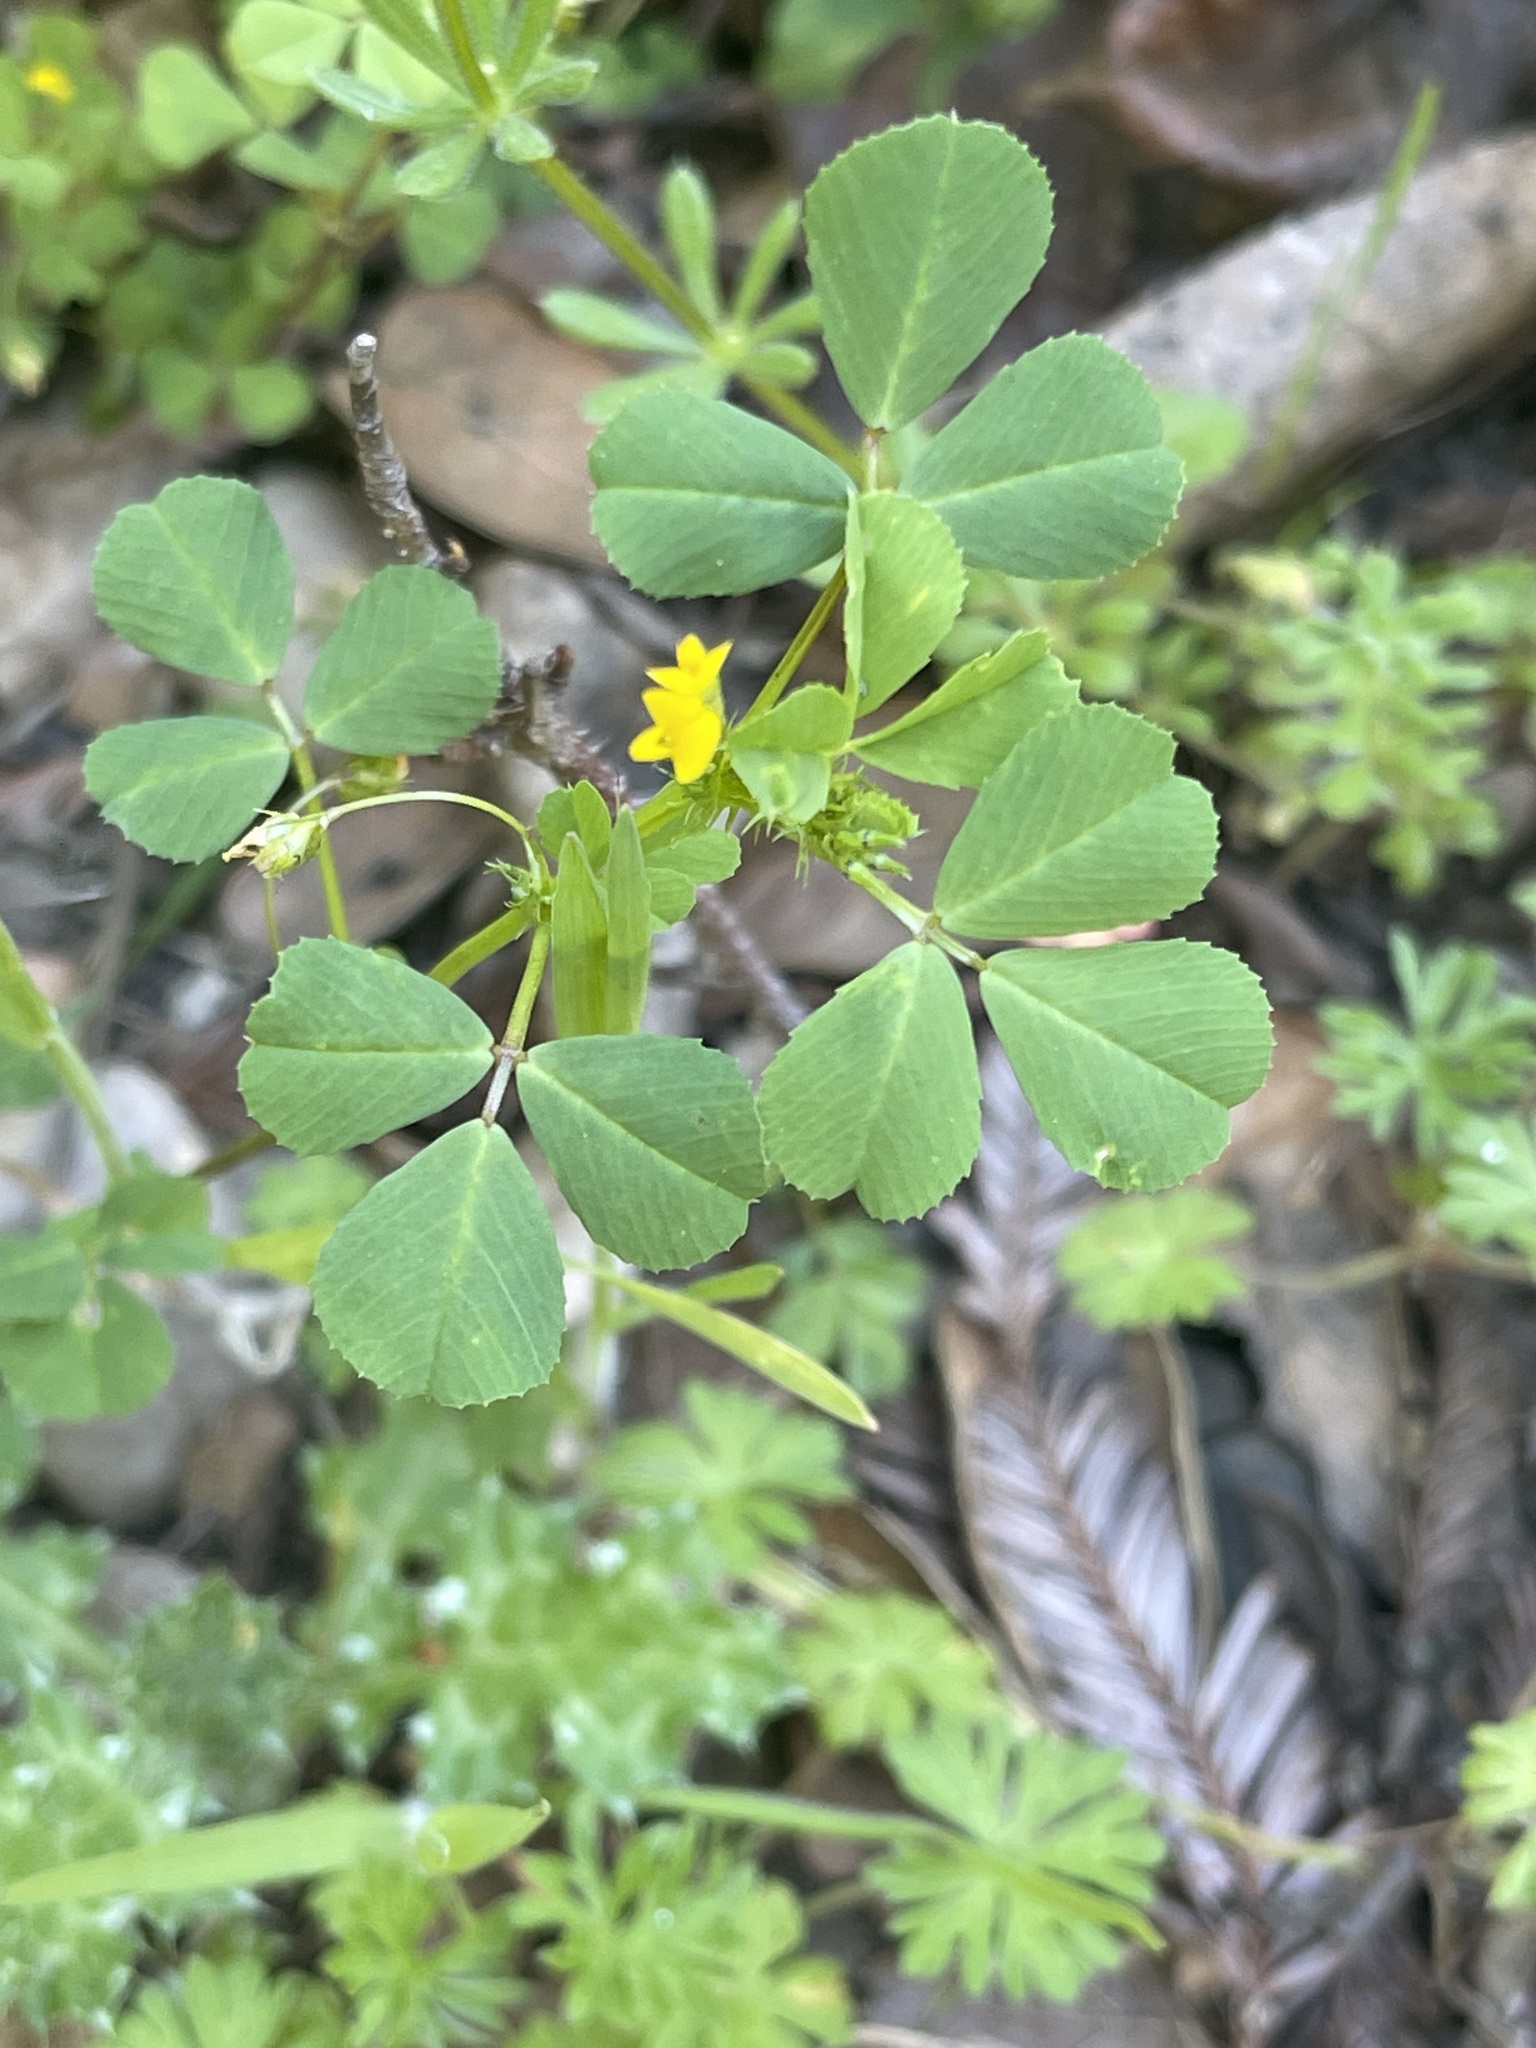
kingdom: Plantae
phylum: Tracheophyta
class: Magnoliopsida
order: Fabales
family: Fabaceae
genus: Medicago
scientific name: Medicago polymorpha
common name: Burclover
